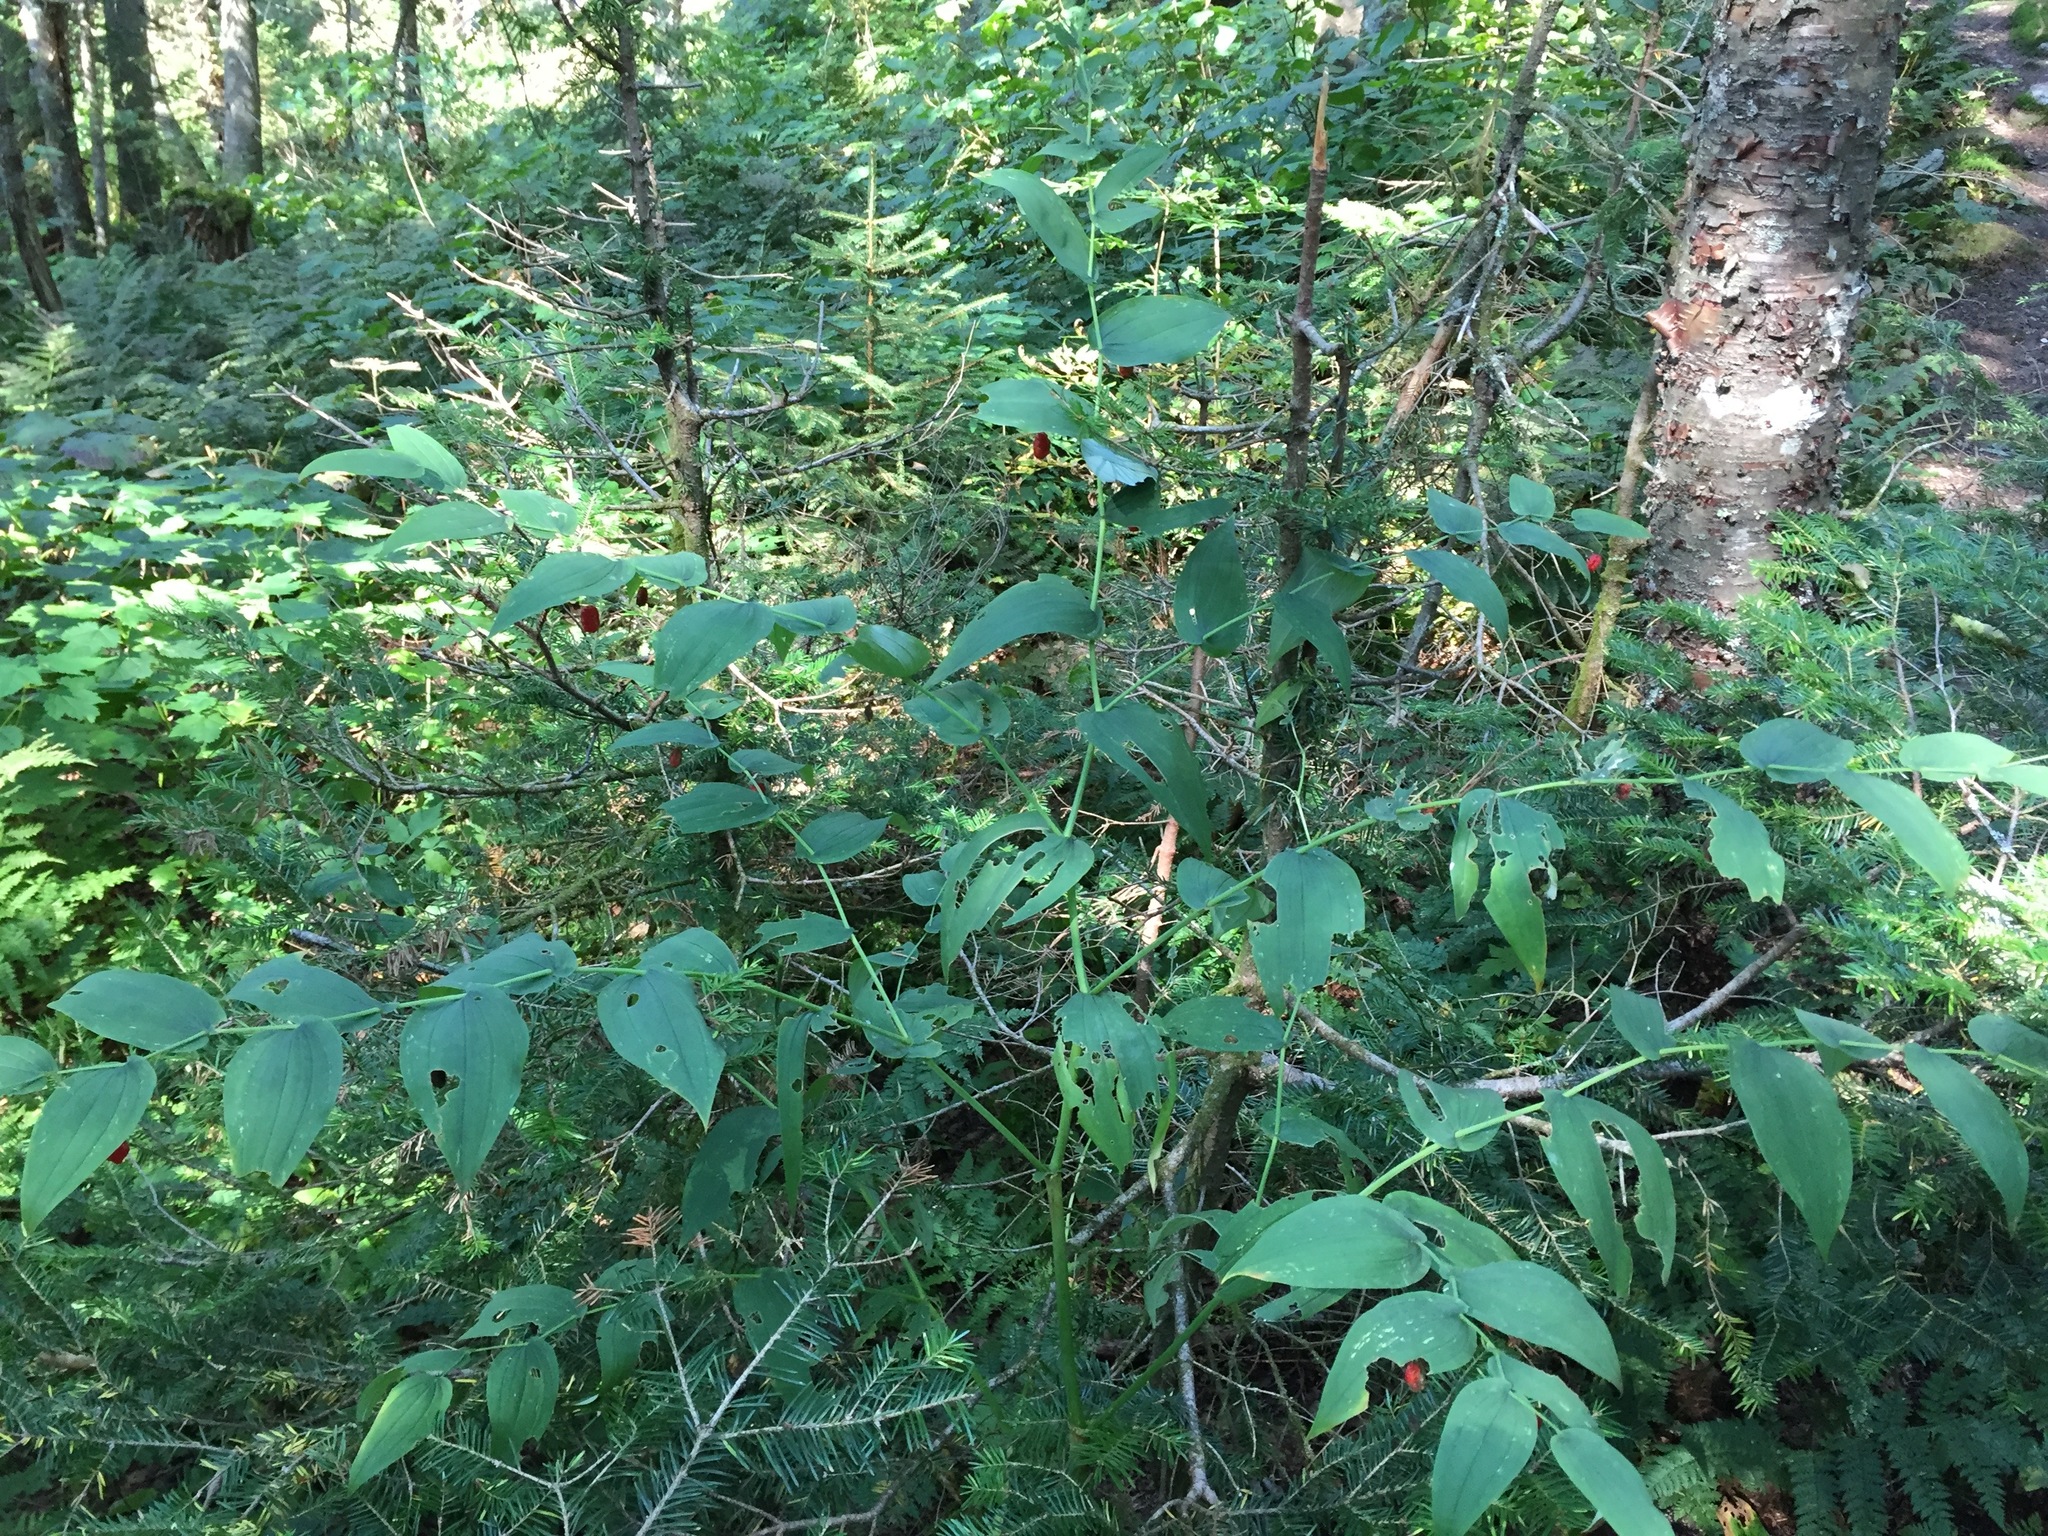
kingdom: Plantae
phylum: Tracheophyta
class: Liliopsida
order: Liliales
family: Liliaceae
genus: Streptopus
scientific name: Streptopus amplexifolius
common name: Clasp twisted stalk
